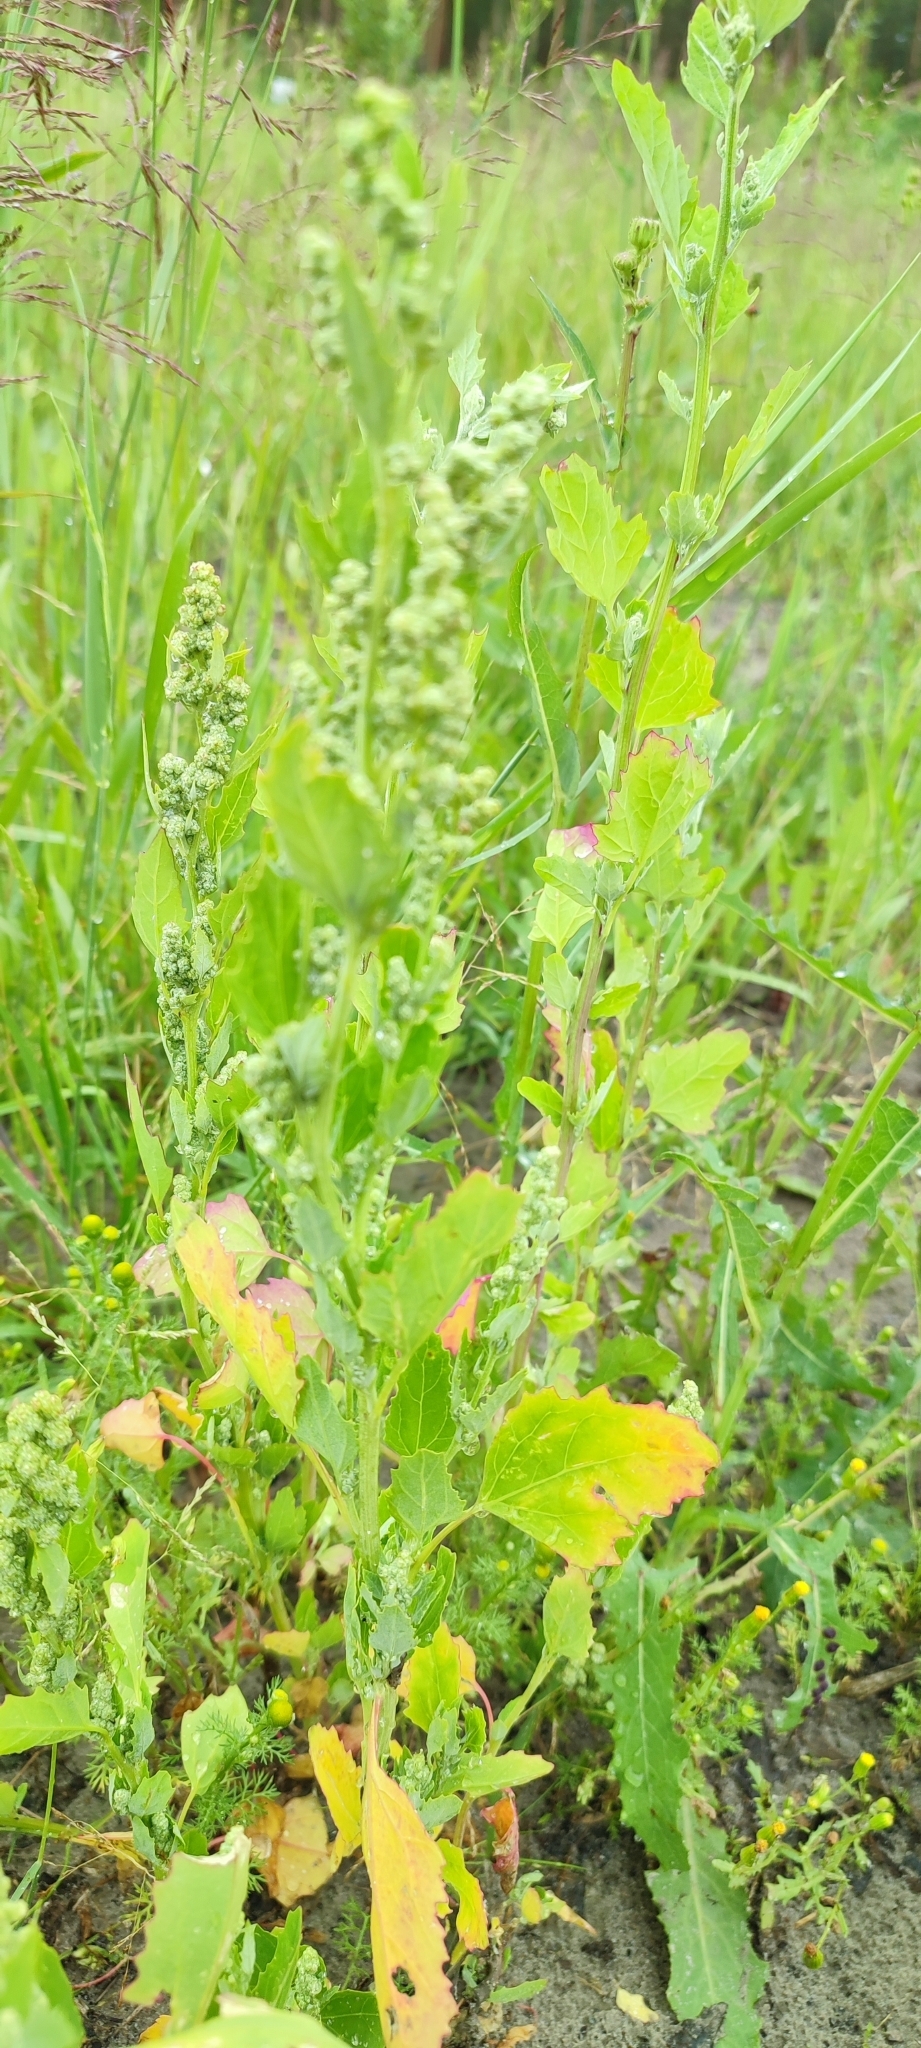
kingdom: Plantae
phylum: Tracheophyta
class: Magnoliopsida
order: Caryophyllales
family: Amaranthaceae
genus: Chenopodium
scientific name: Chenopodium album
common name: Fat-hen
